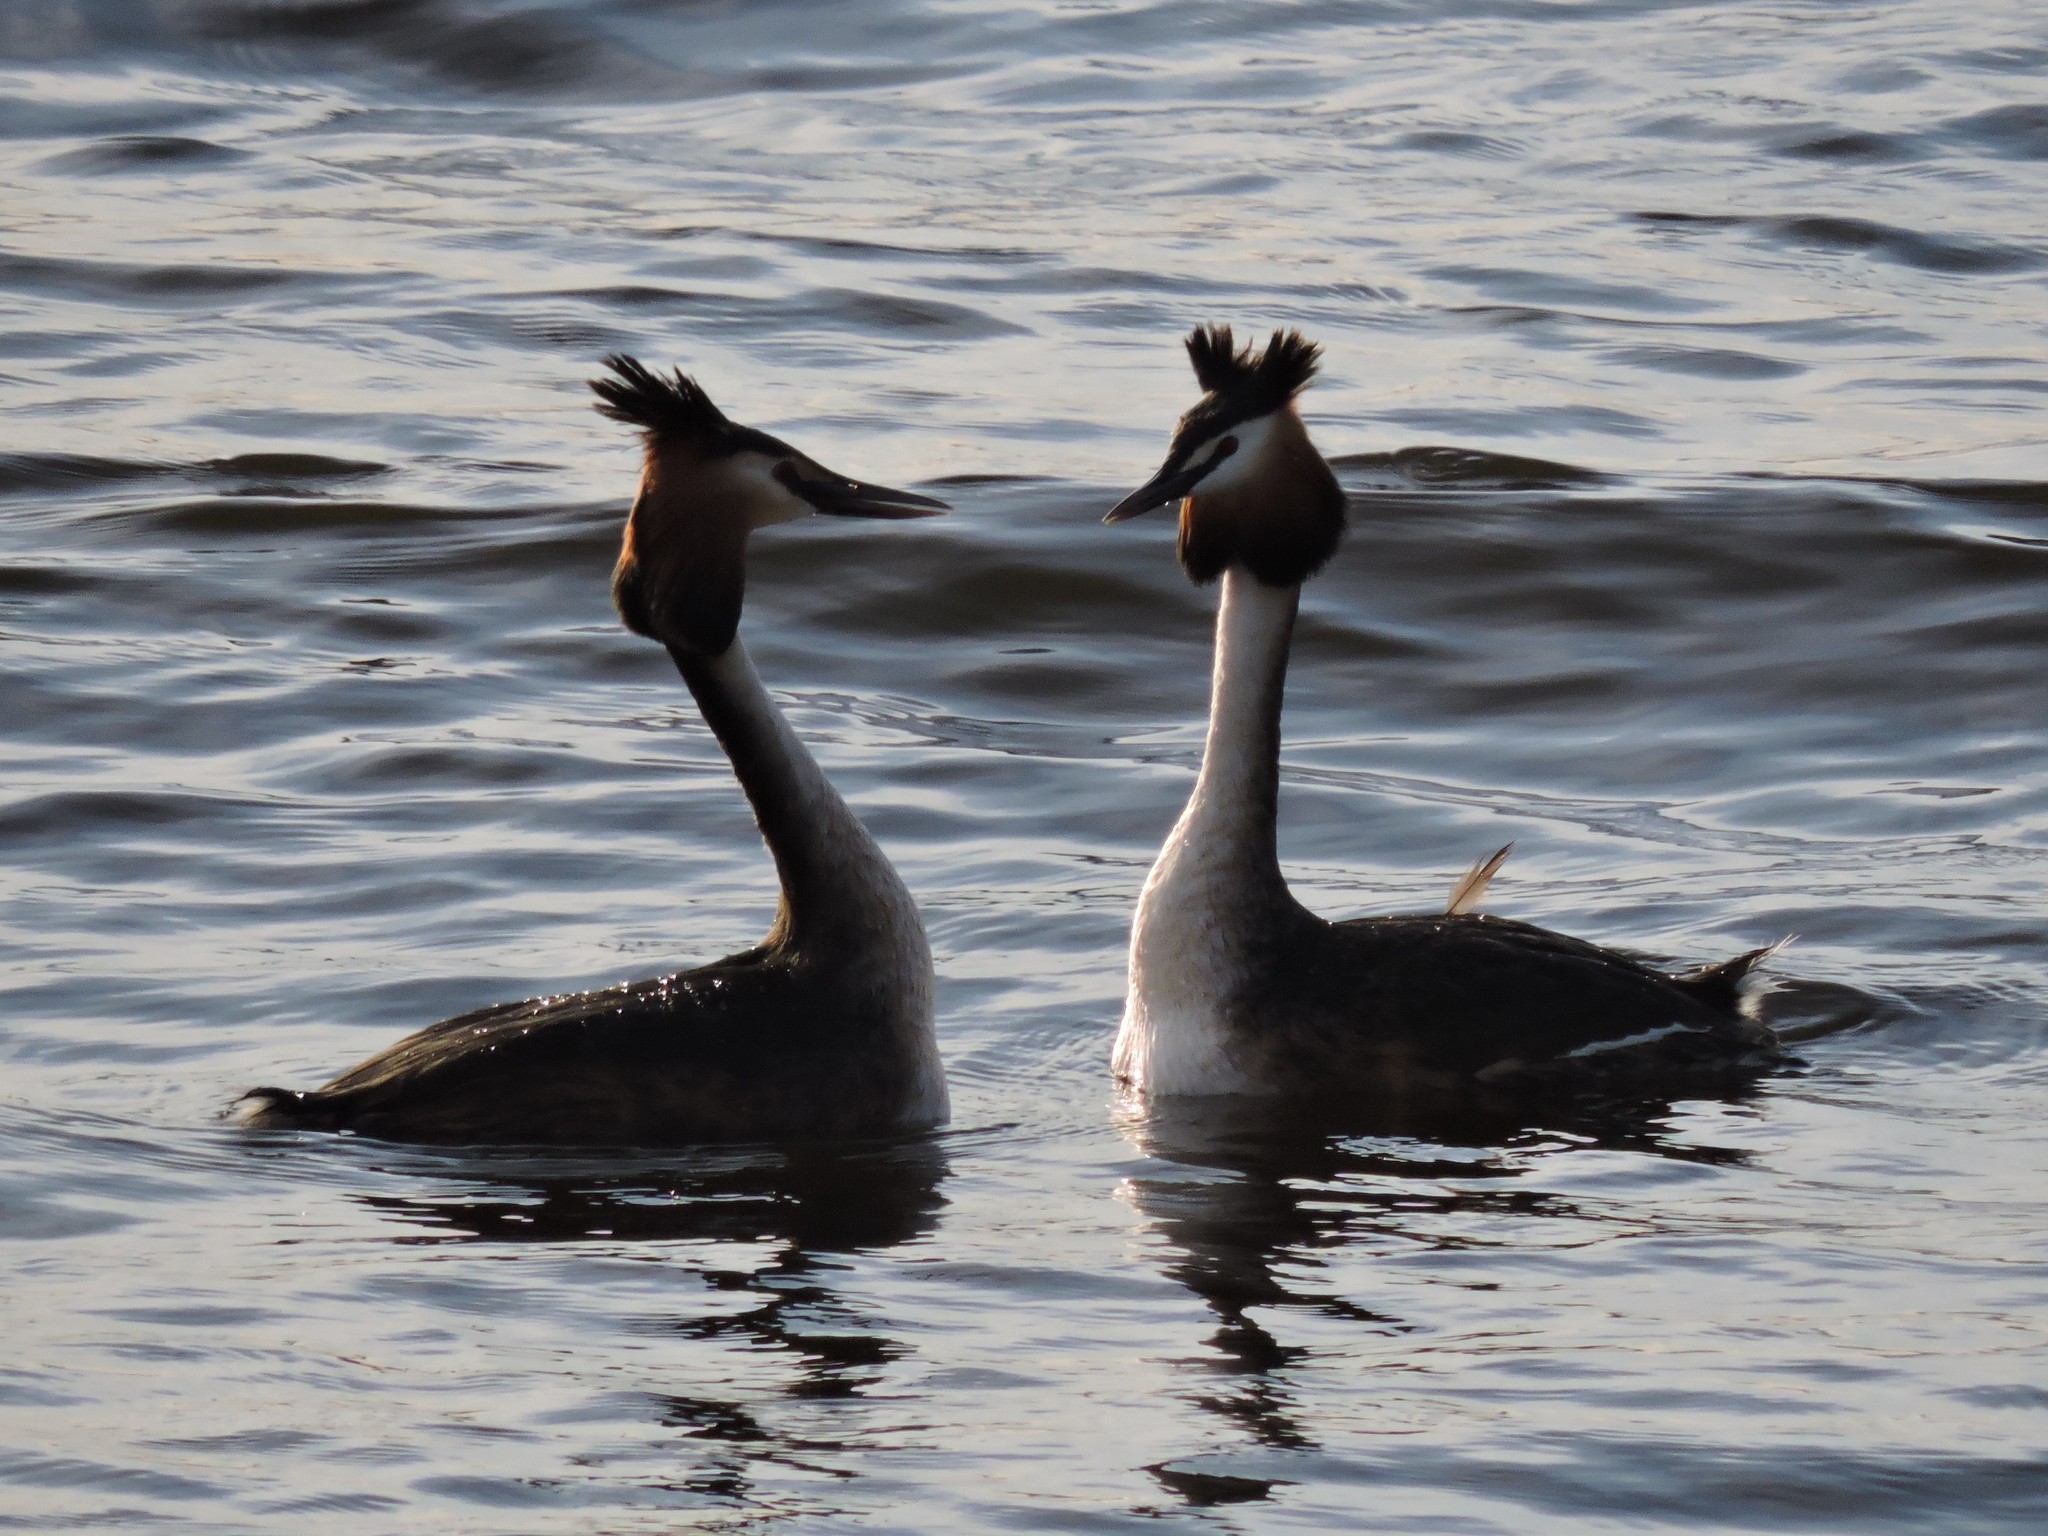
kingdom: Animalia
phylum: Chordata
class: Aves
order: Podicipediformes
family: Podicipedidae
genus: Podiceps
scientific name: Podiceps cristatus
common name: Great crested grebe
